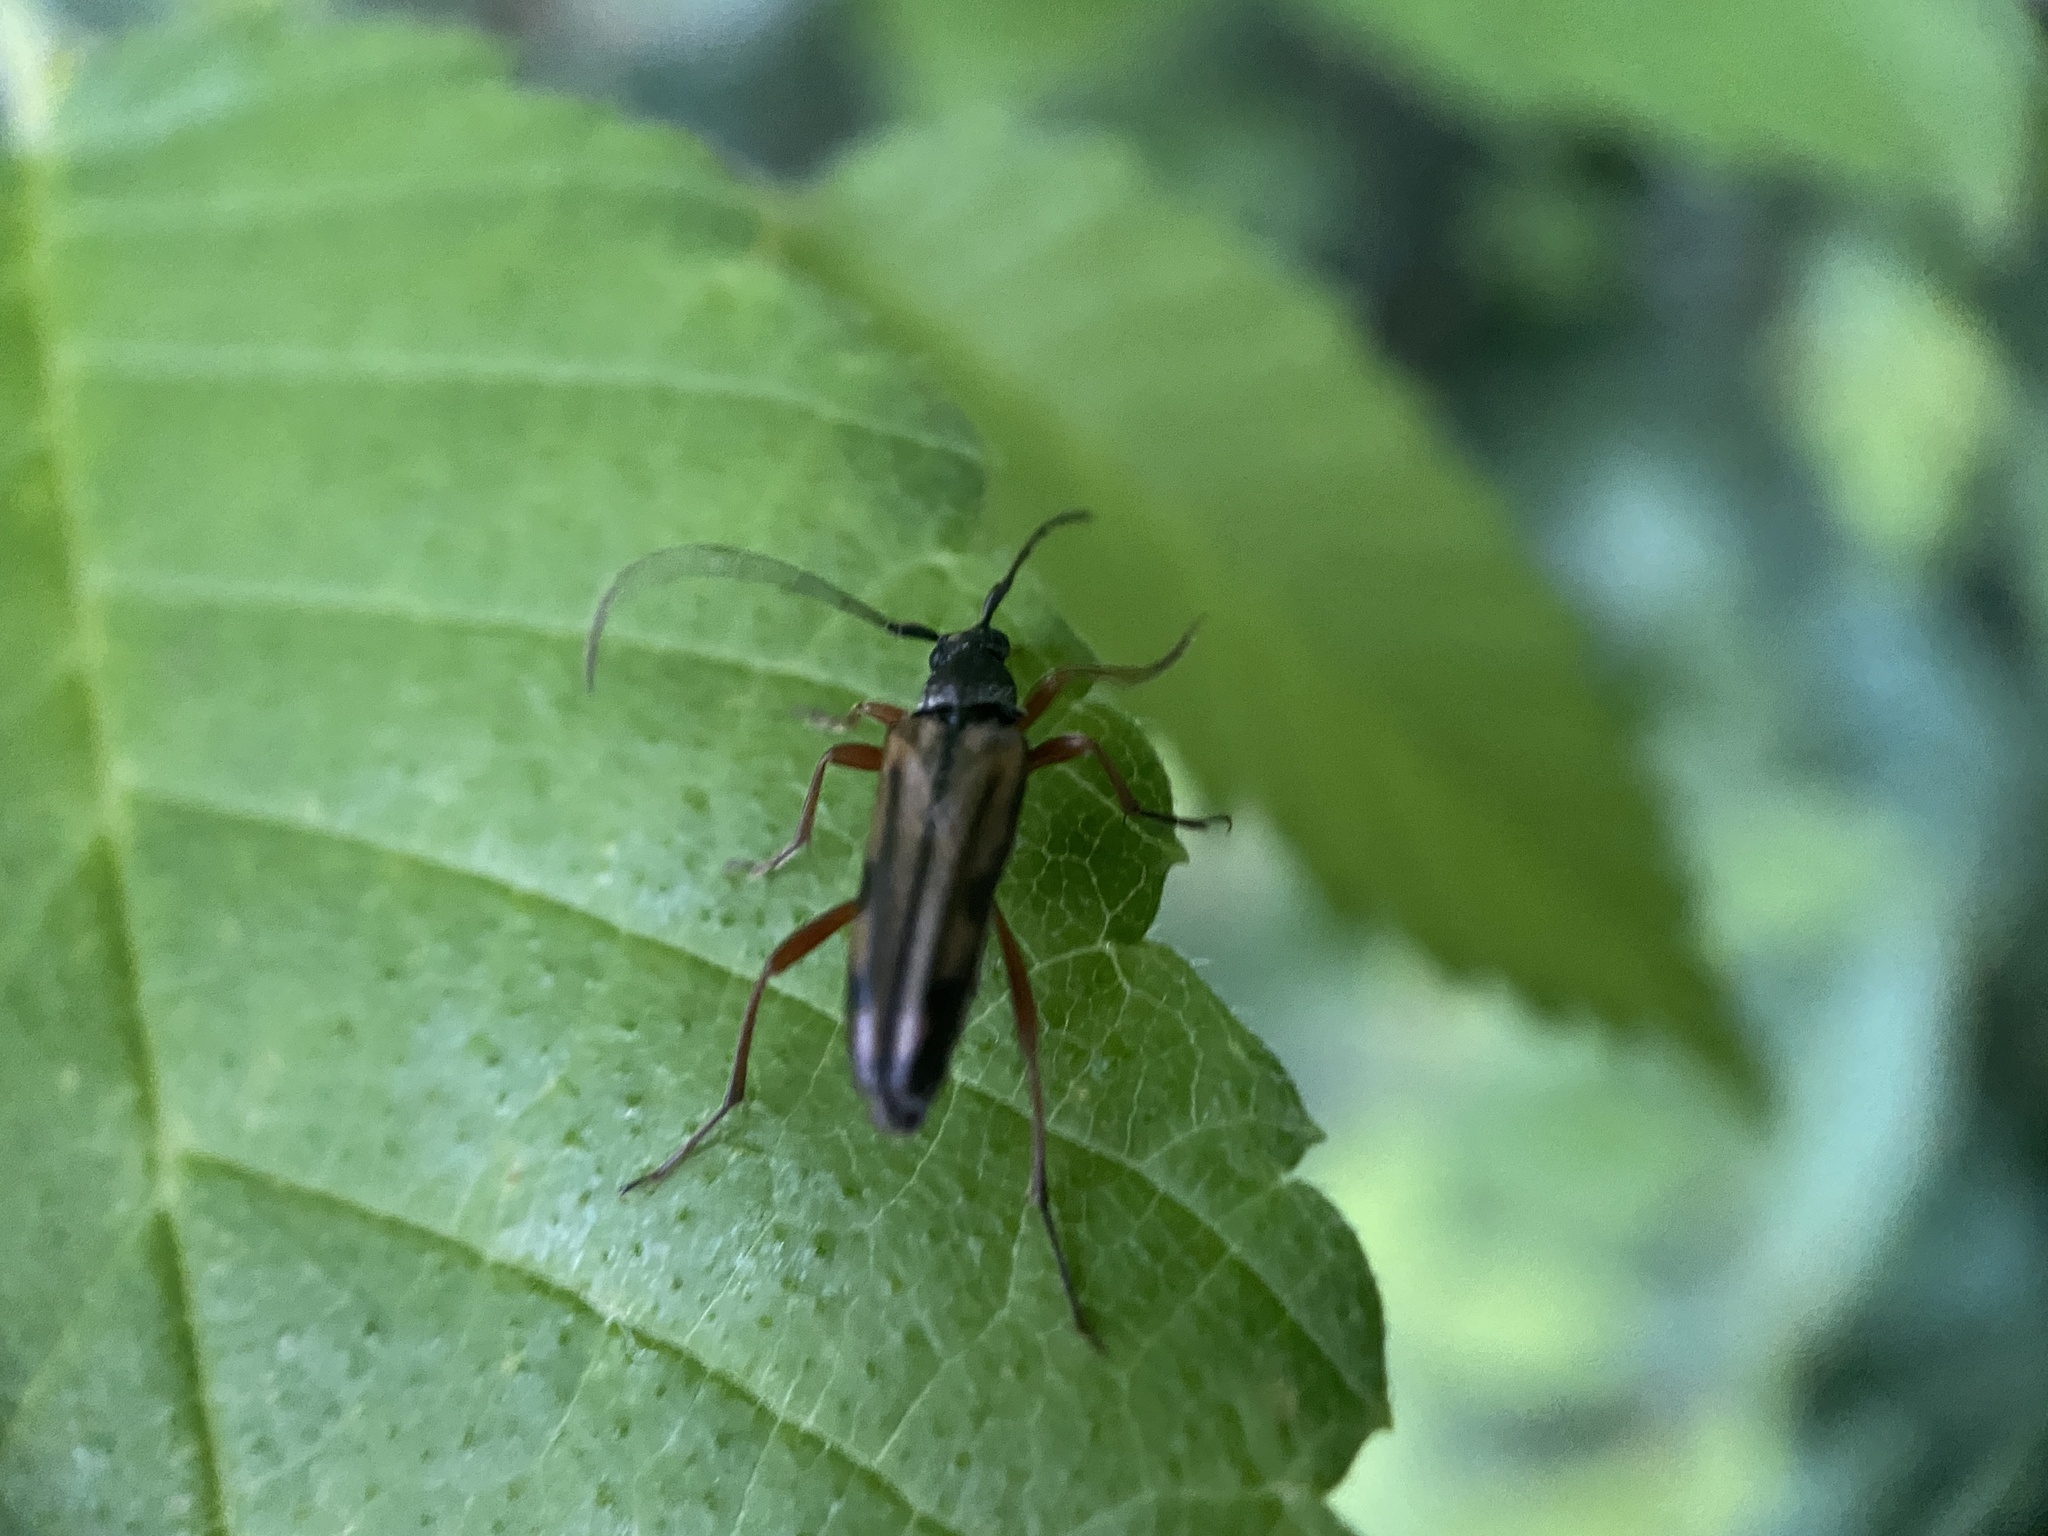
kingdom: Animalia
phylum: Arthropoda
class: Insecta
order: Coleoptera
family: Cerambycidae
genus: Analeptura
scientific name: Analeptura lineola
